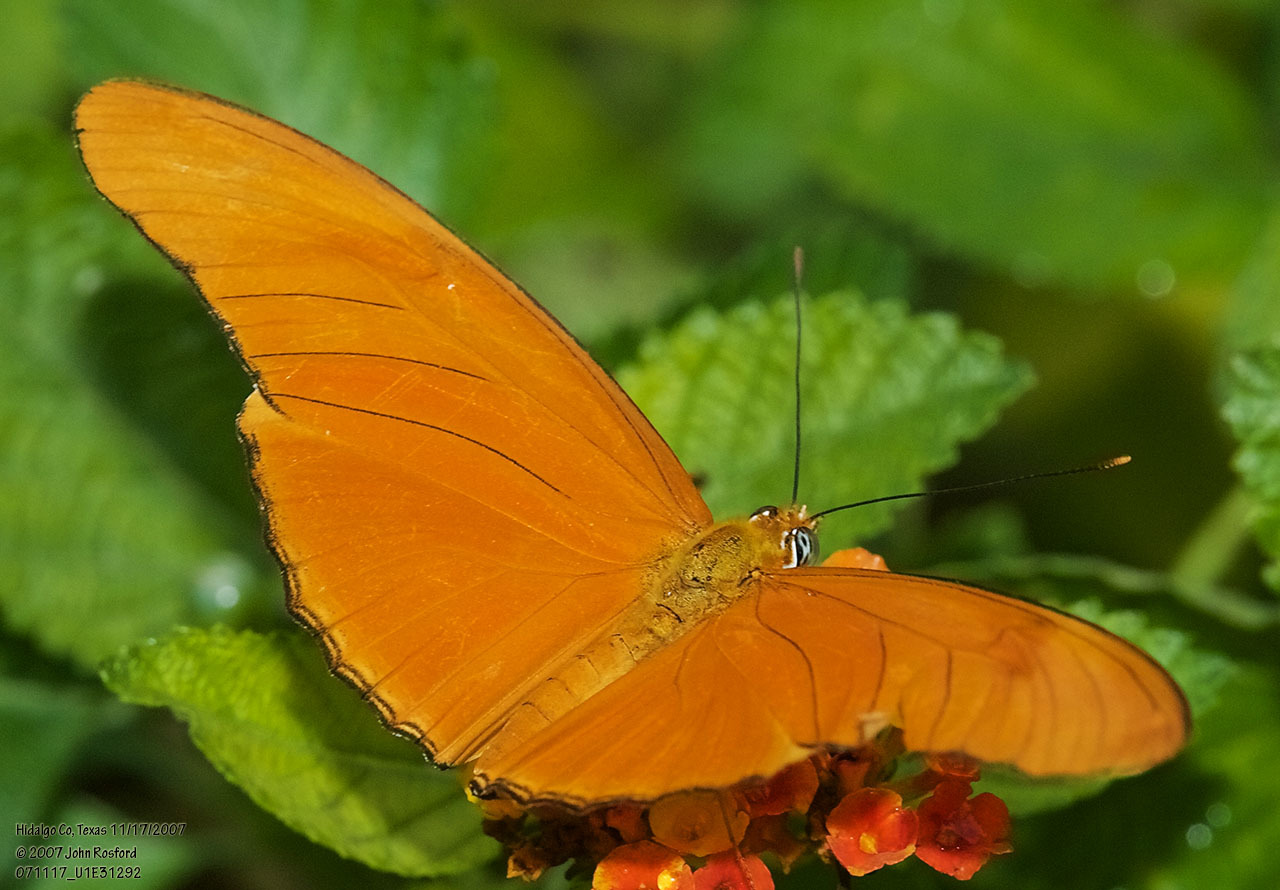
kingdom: Animalia
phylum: Arthropoda
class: Insecta
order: Lepidoptera
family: Nymphalidae
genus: Dryas
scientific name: Dryas iulia
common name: Flambeau
